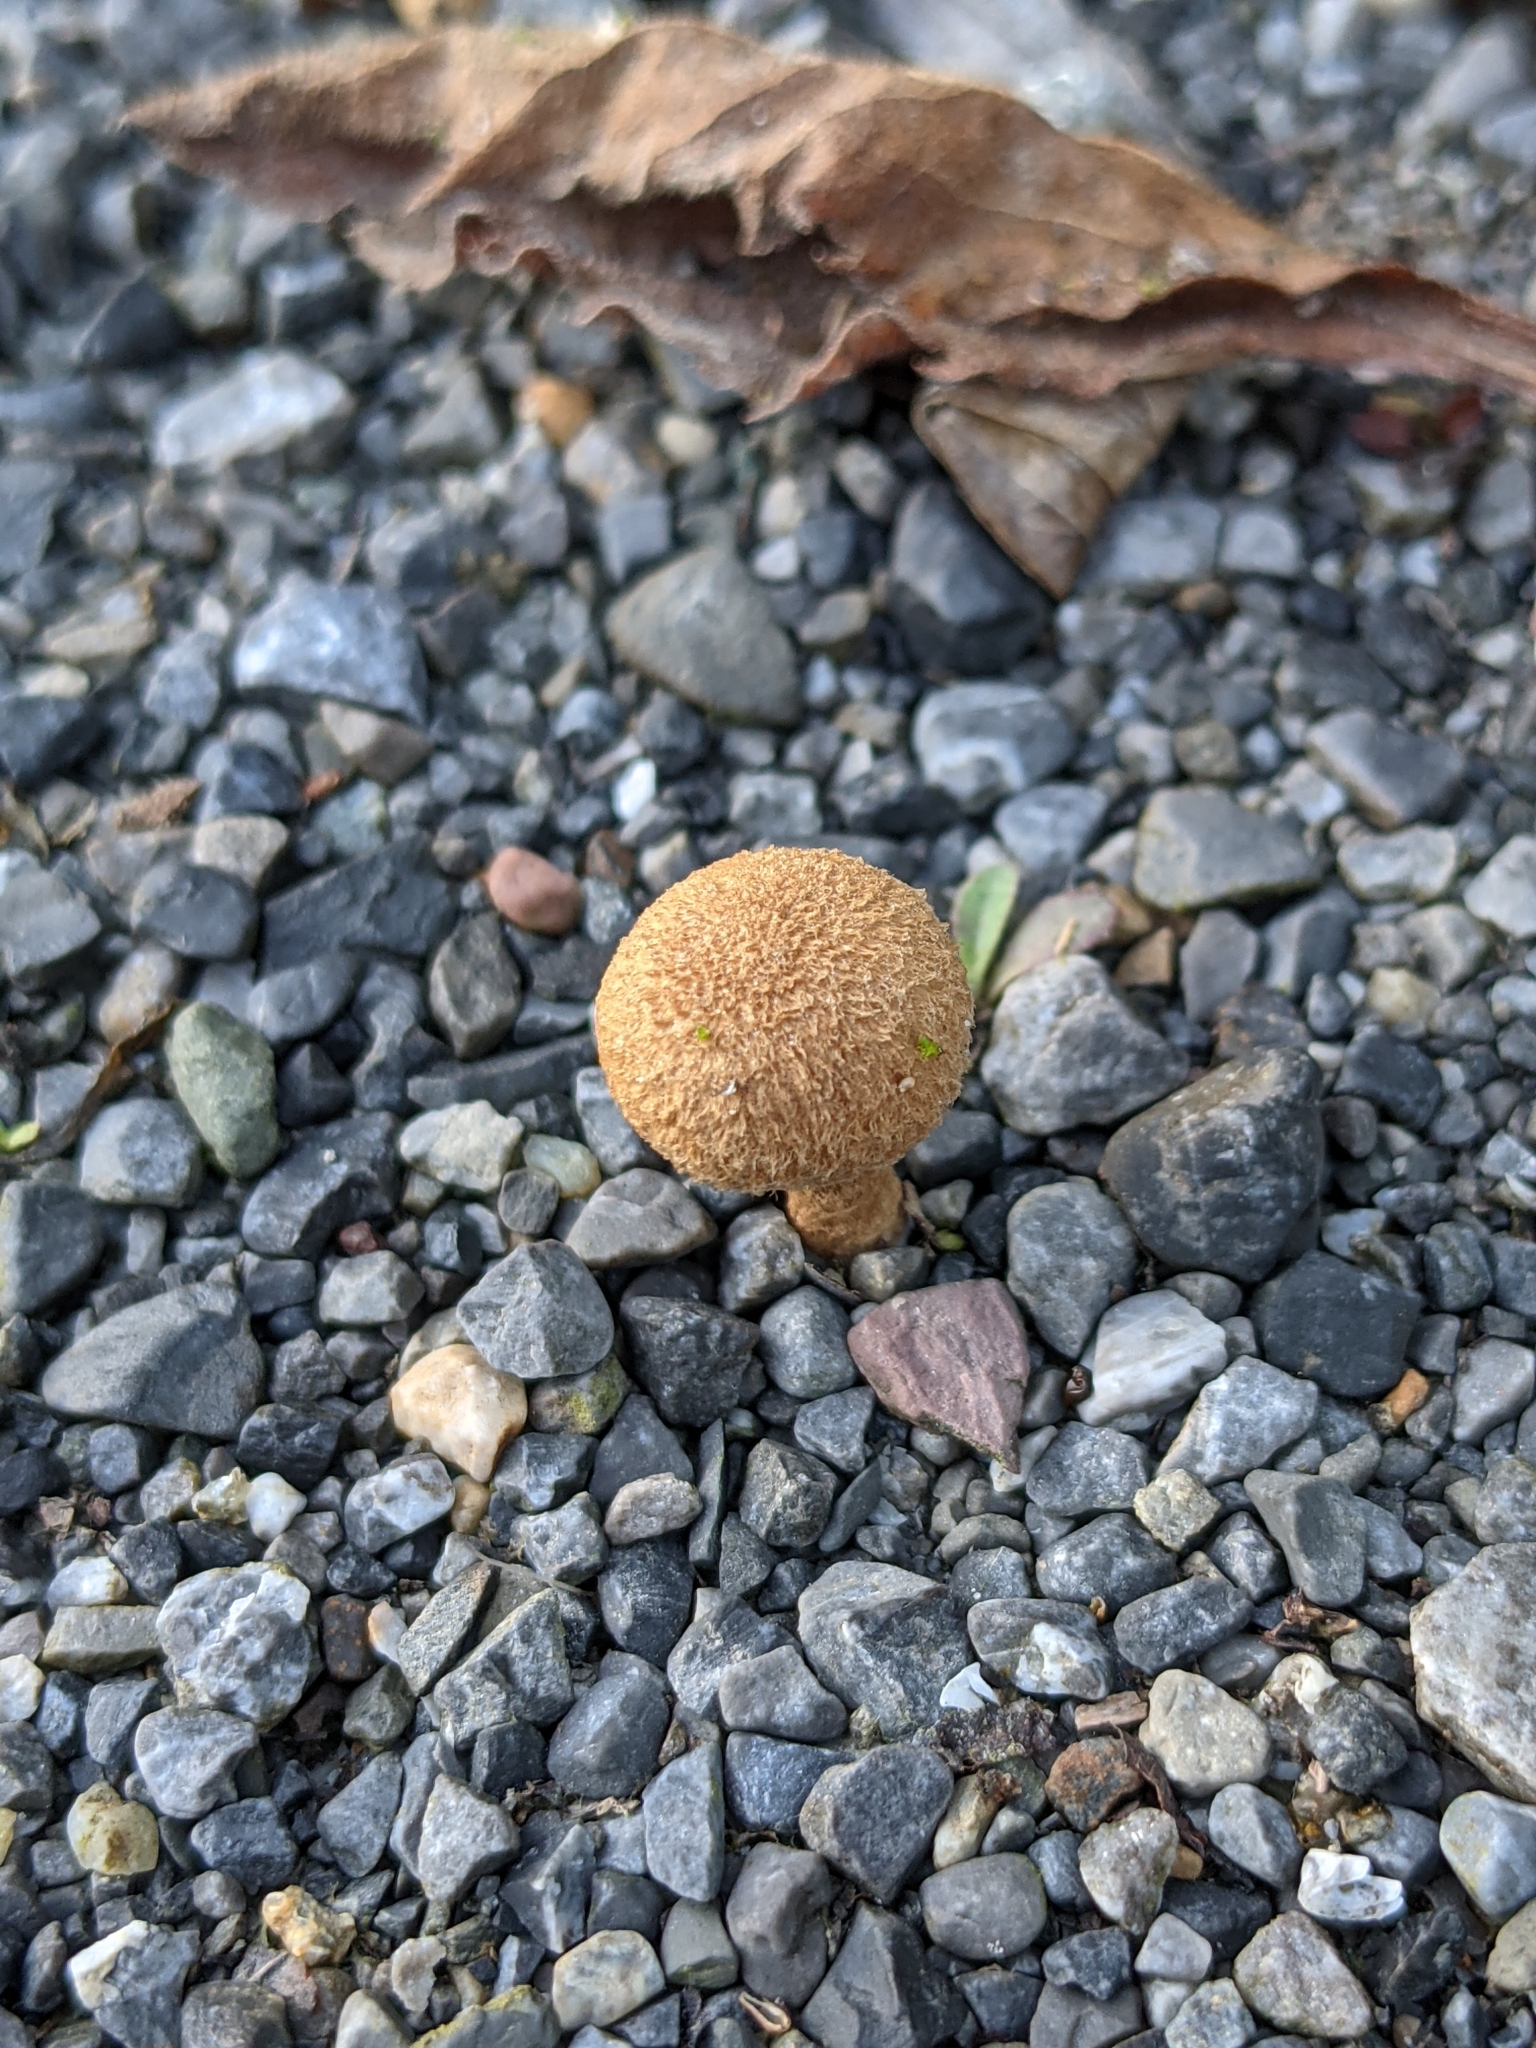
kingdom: Fungi
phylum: Basidiomycota
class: Agaricomycetes
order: Agaricales
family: Inocybaceae
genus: Inocybe
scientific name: Inocybe lanuginosa
